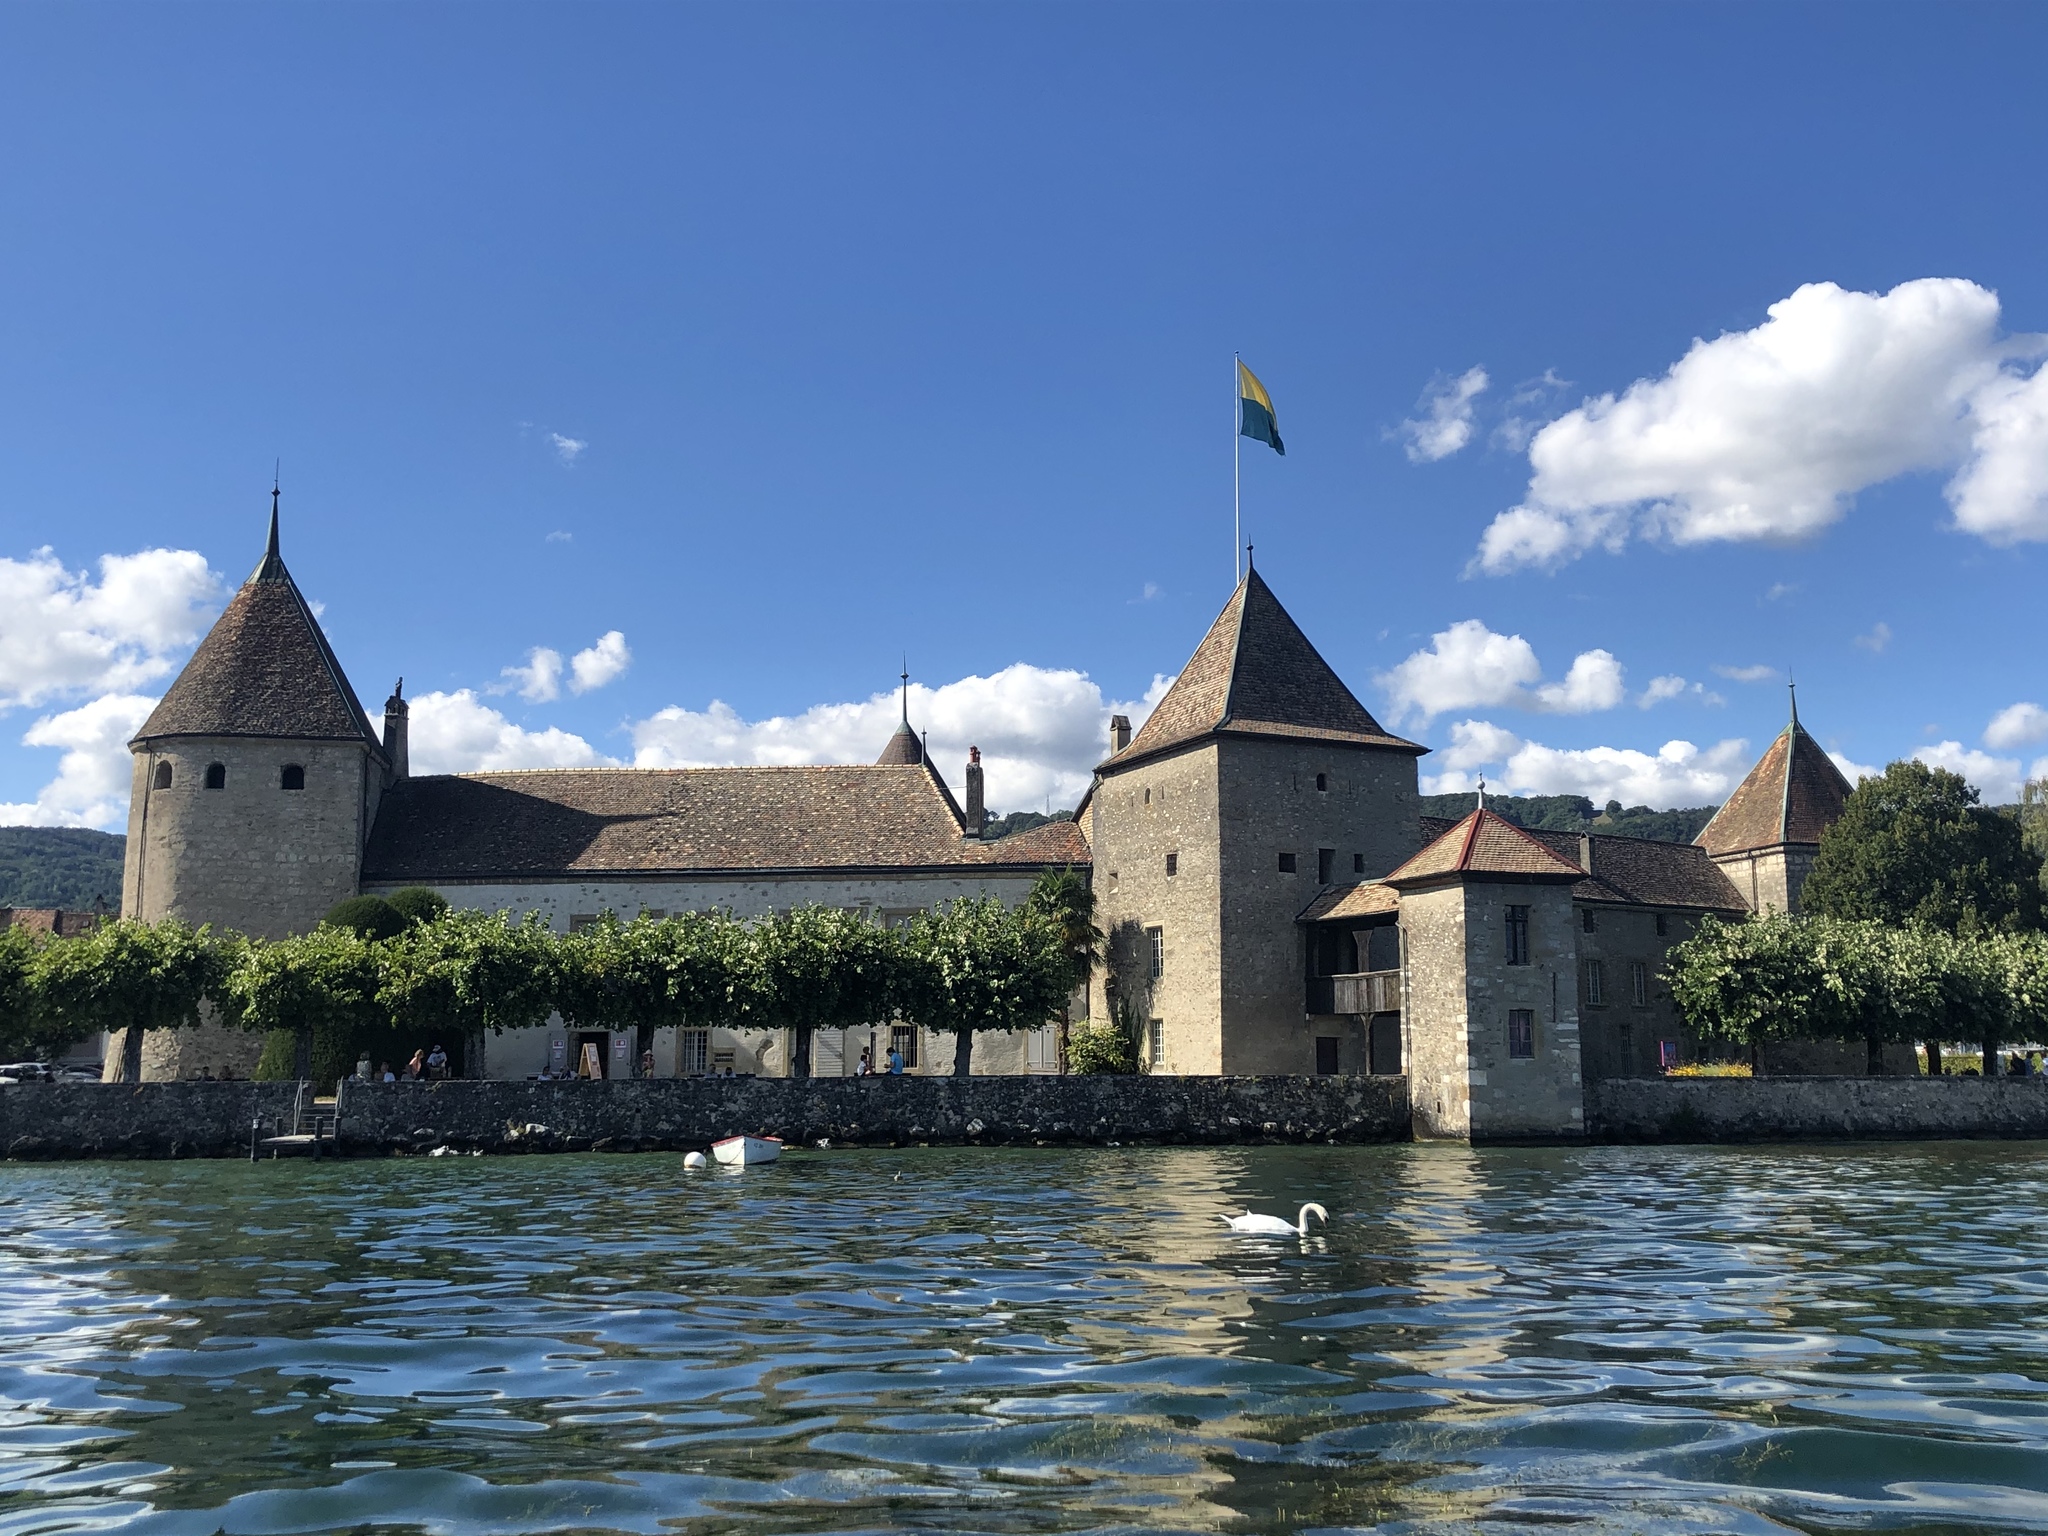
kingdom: Animalia
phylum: Chordata
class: Aves
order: Anseriformes
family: Anatidae
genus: Cygnus
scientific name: Cygnus olor
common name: Mute swan
